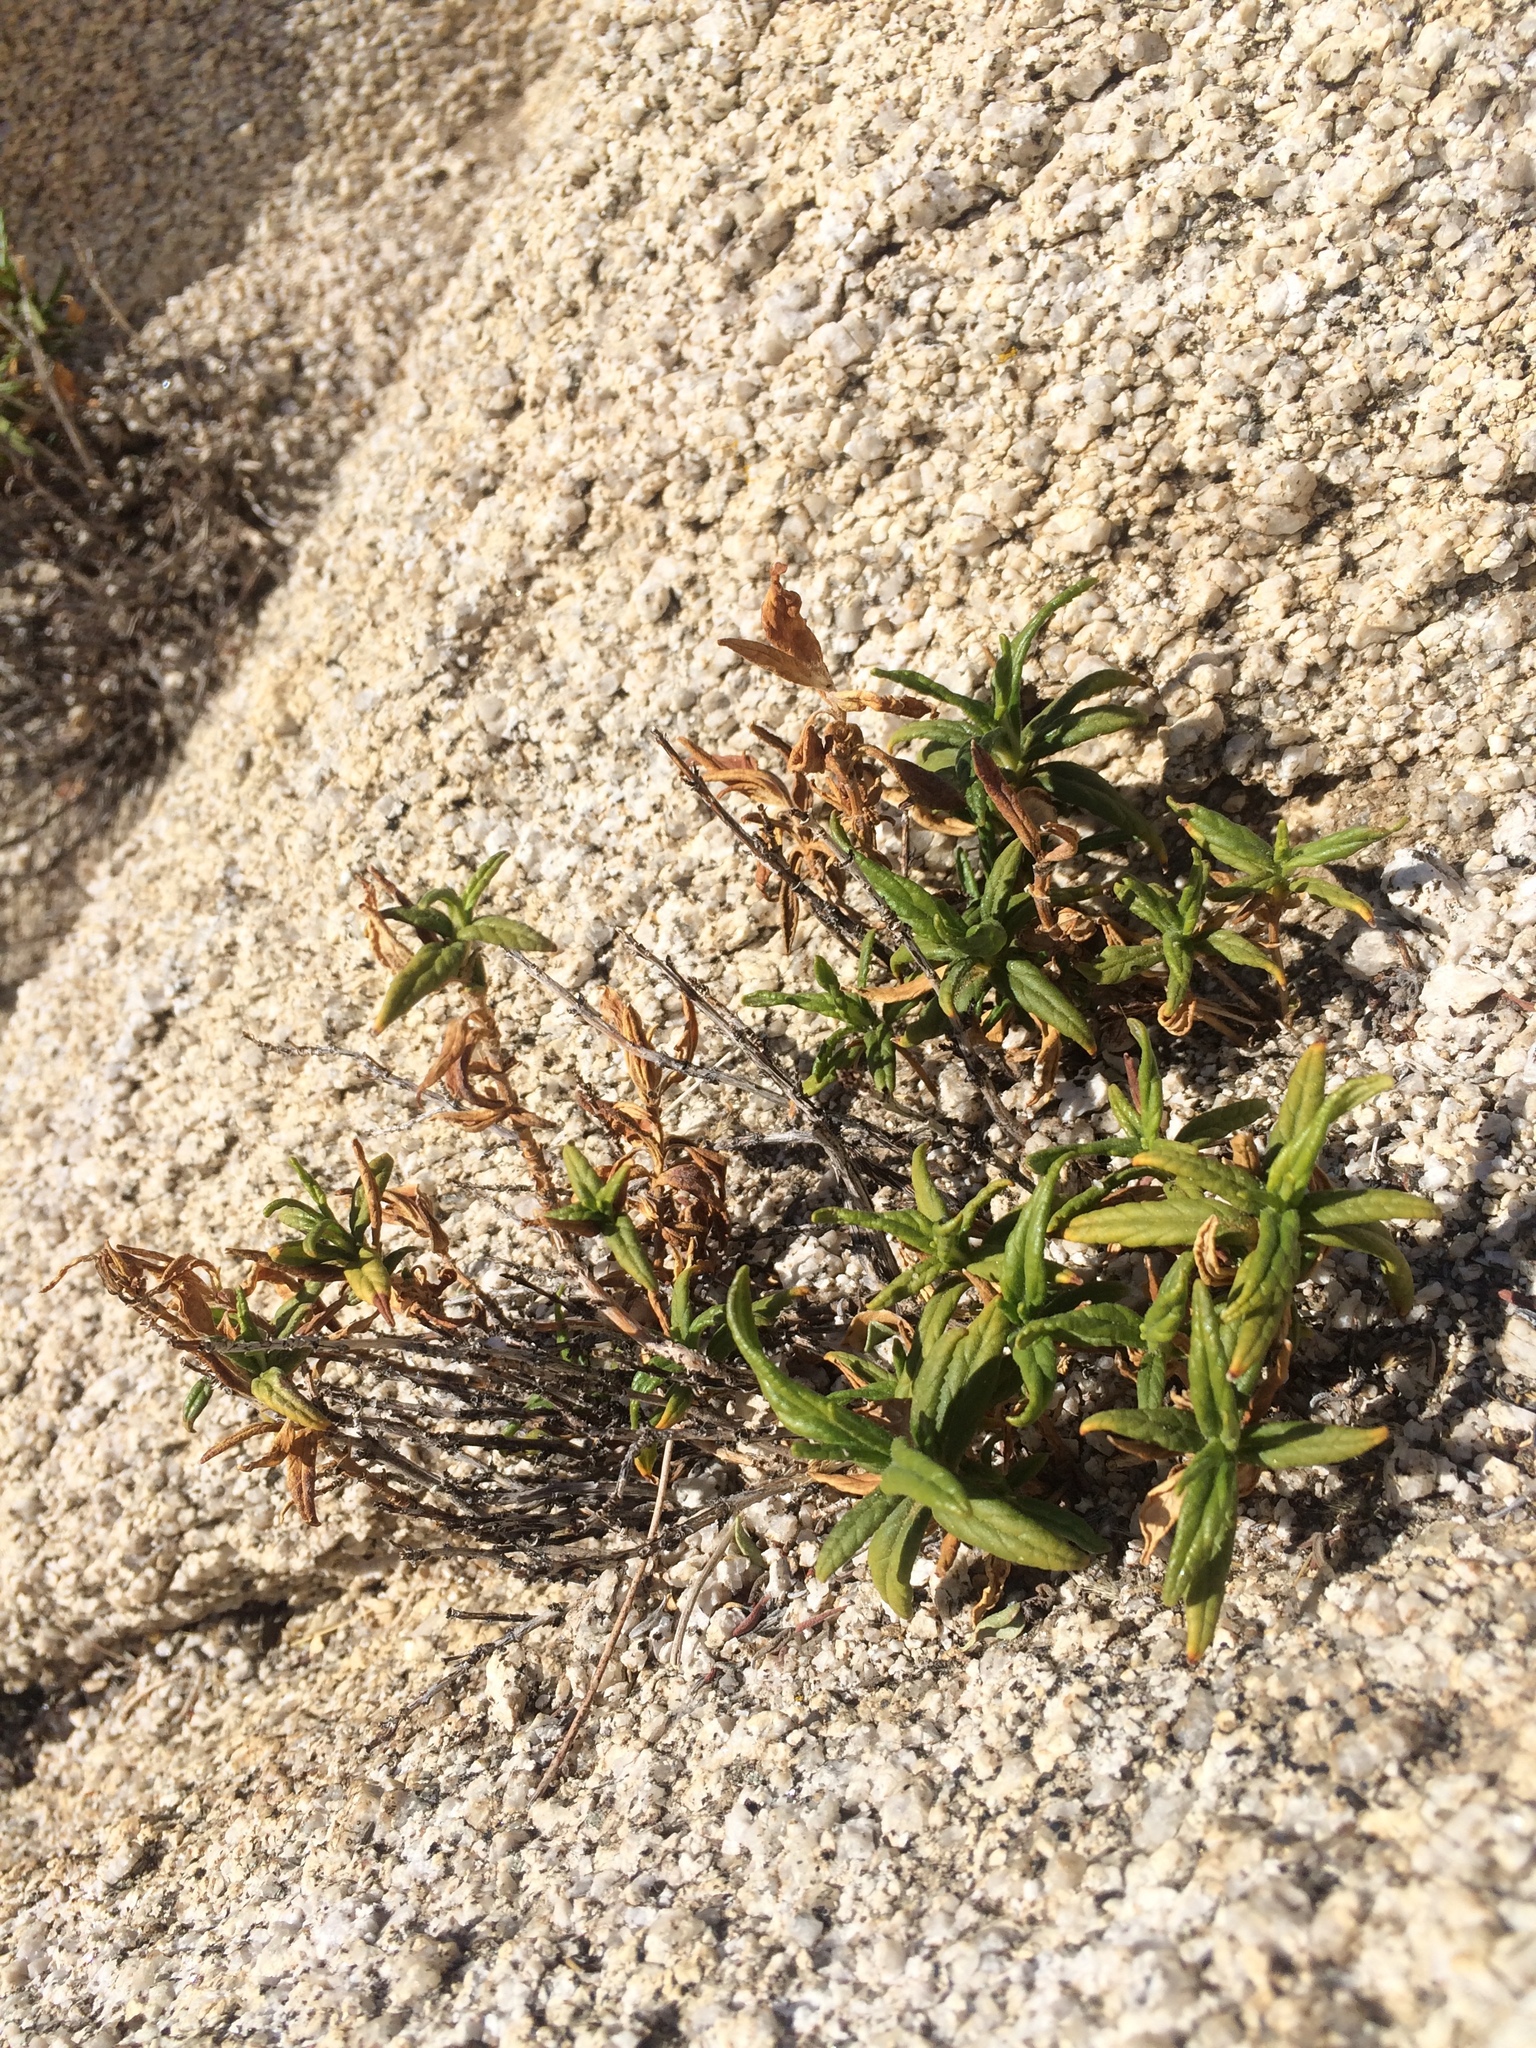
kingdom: Plantae
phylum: Tracheophyta
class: Magnoliopsida
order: Lamiales
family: Phrymaceae
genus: Diplacus
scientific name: Diplacus calycinus
